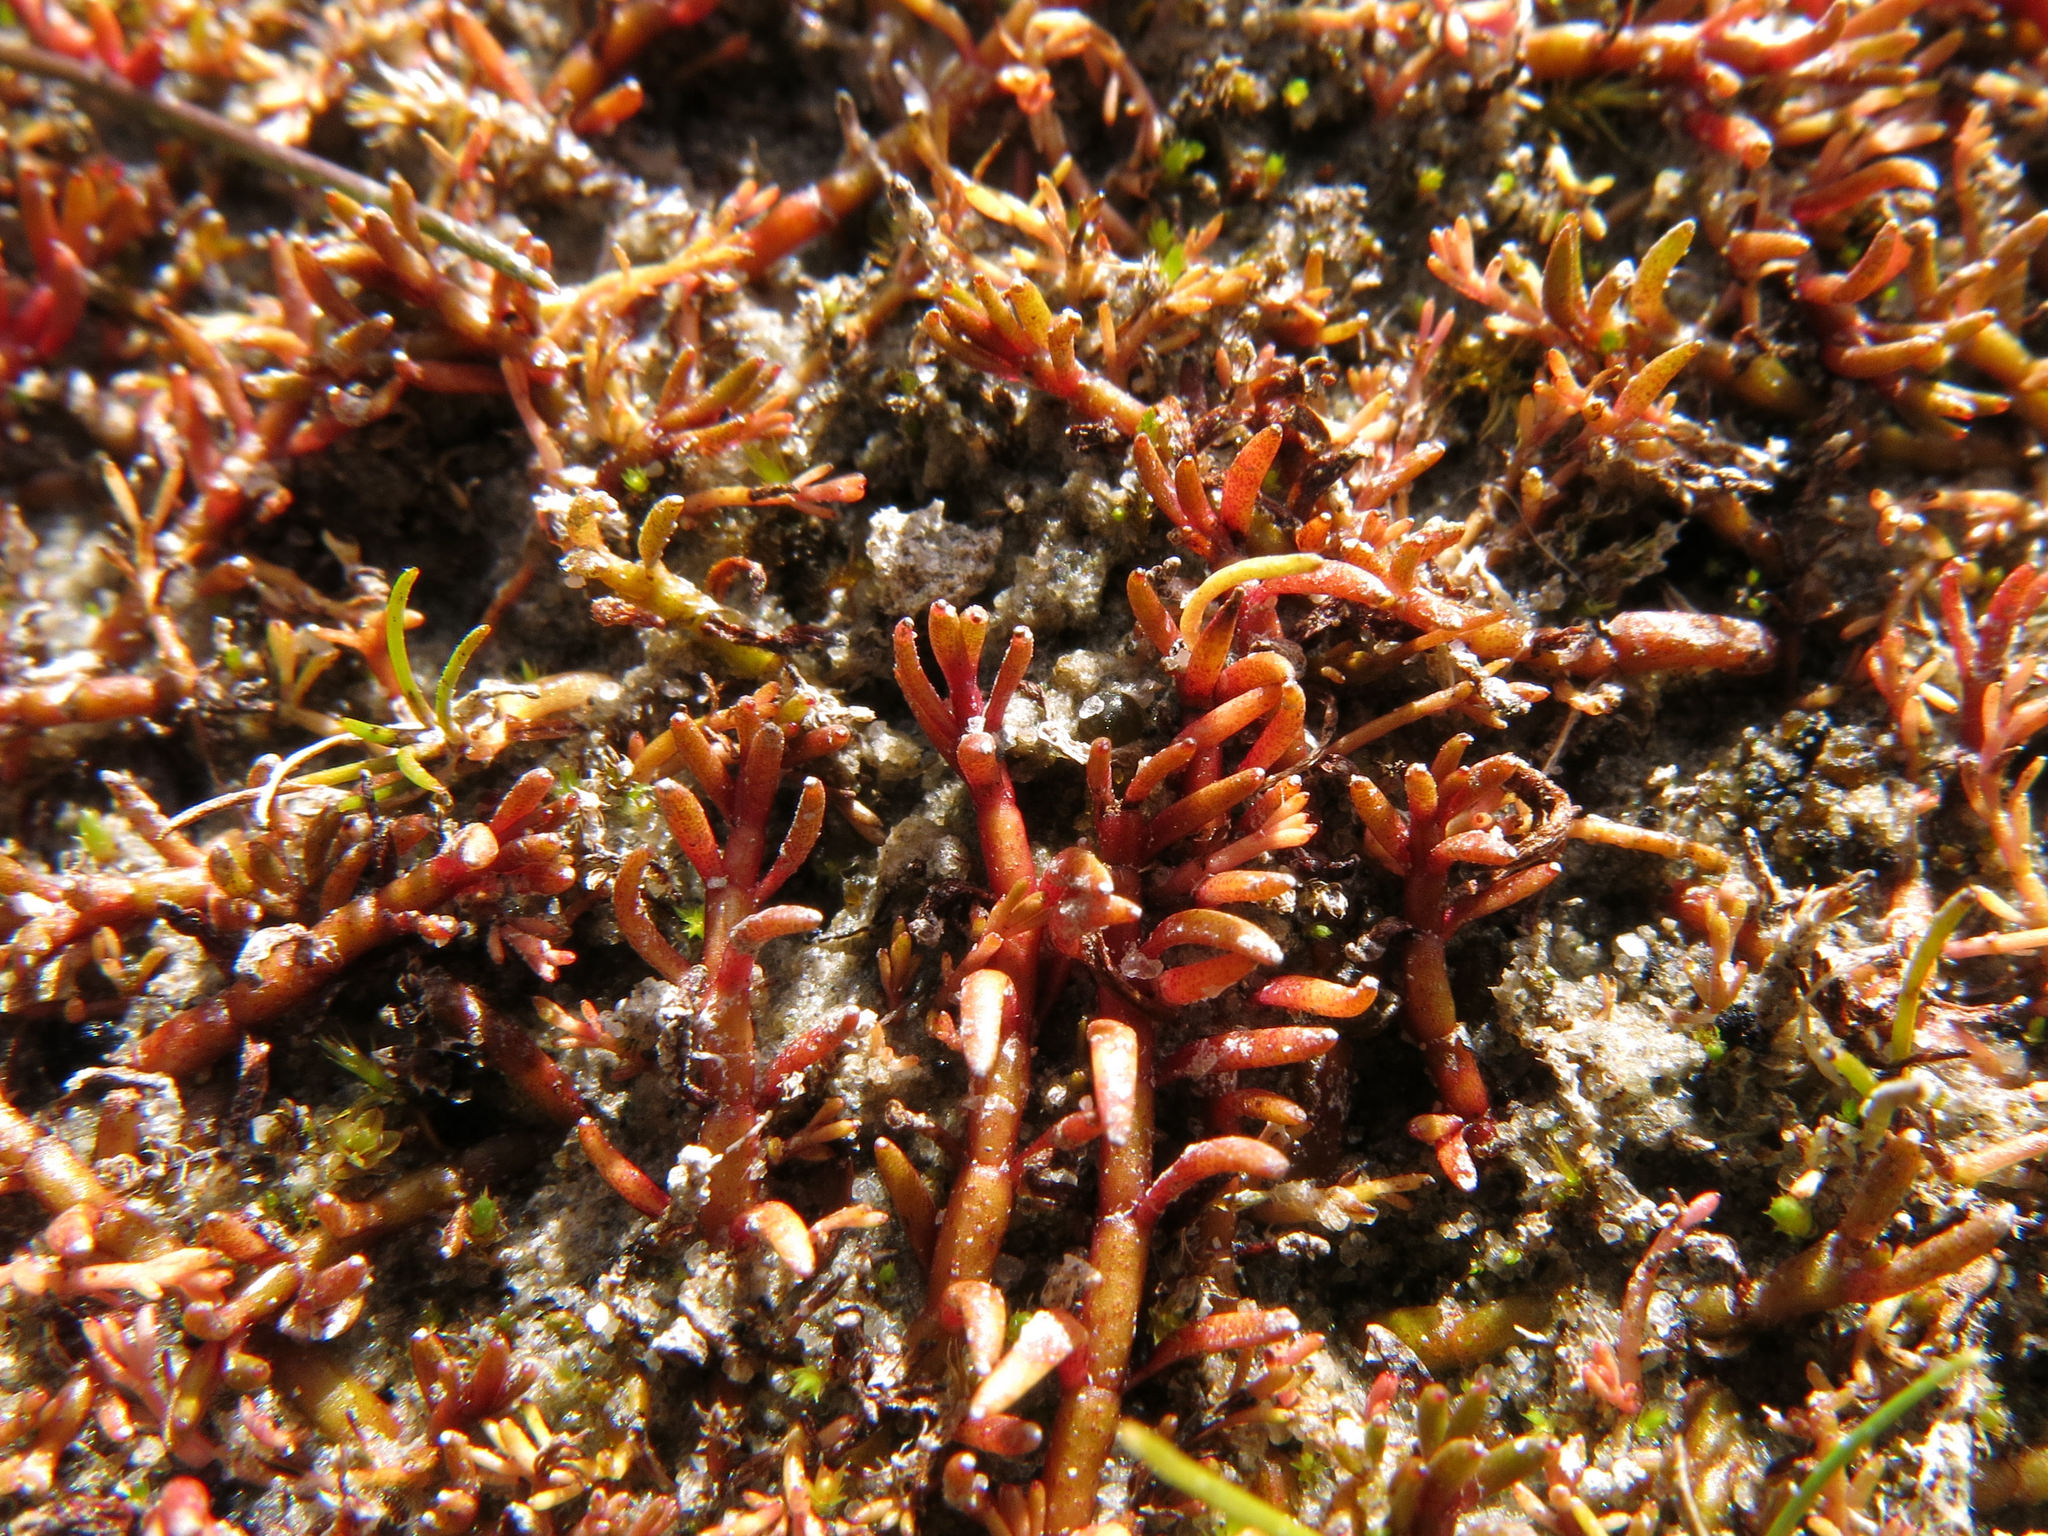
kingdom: Plantae
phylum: Tracheophyta
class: Magnoliopsida
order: Saxifragales
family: Haloragaceae
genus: Myriophyllum
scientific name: Myriophyllum pedunculatum
